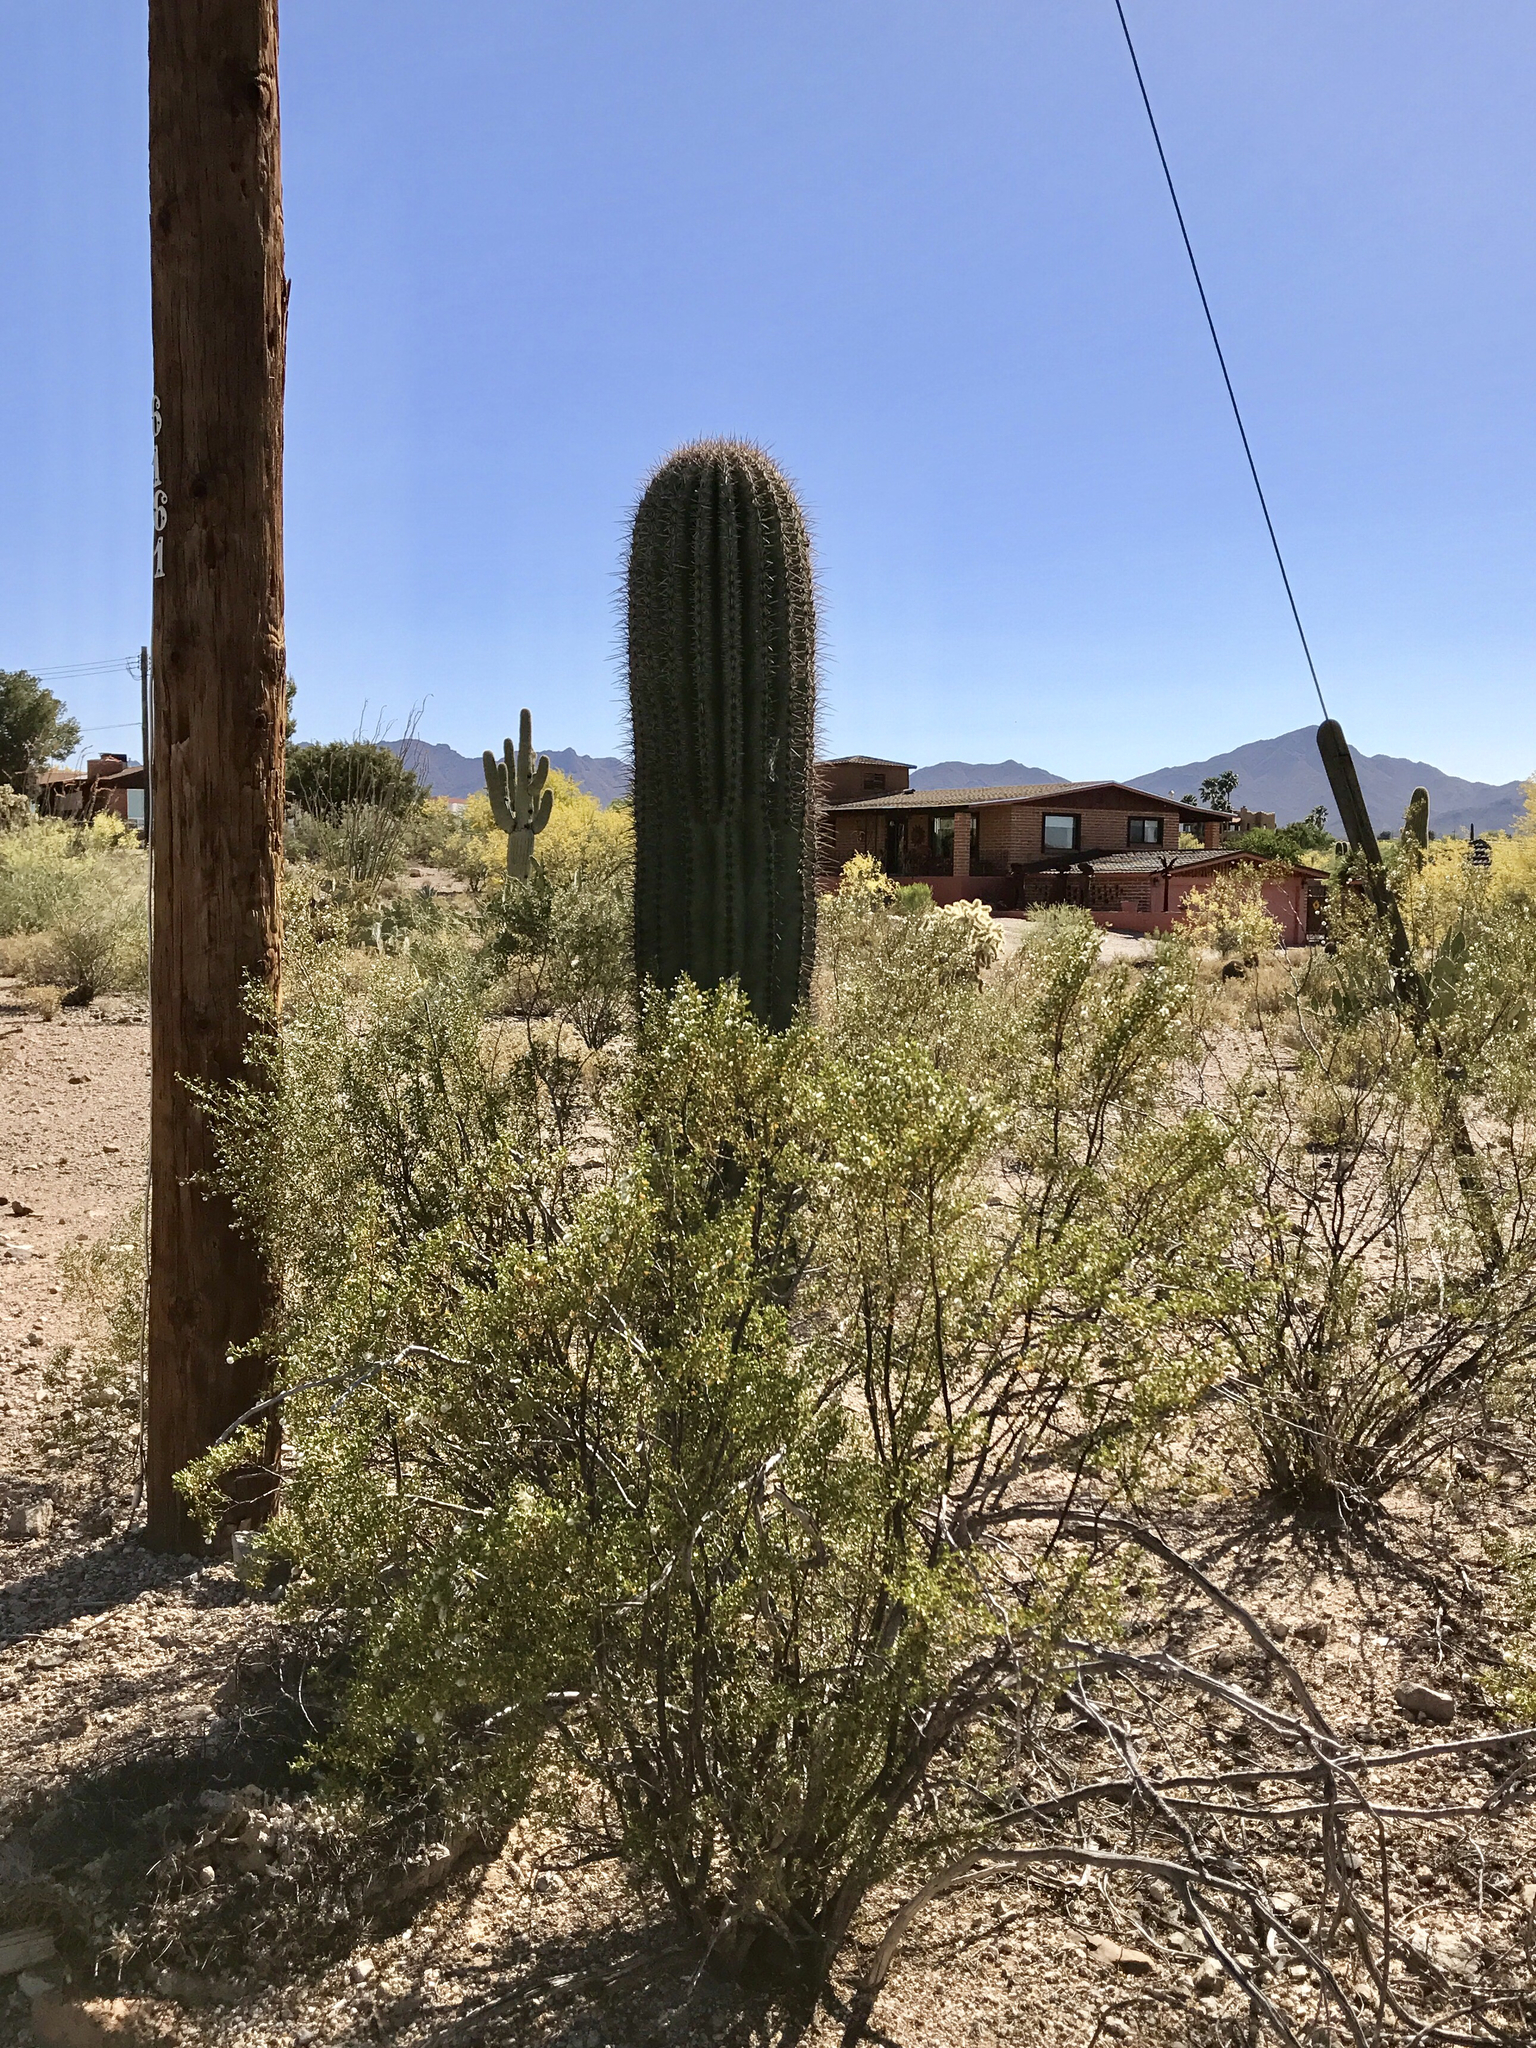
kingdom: Plantae
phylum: Tracheophyta
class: Magnoliopsida
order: Zygophyllales
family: Zygophyllaceae
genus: Larrea
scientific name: Larrea tridentata
